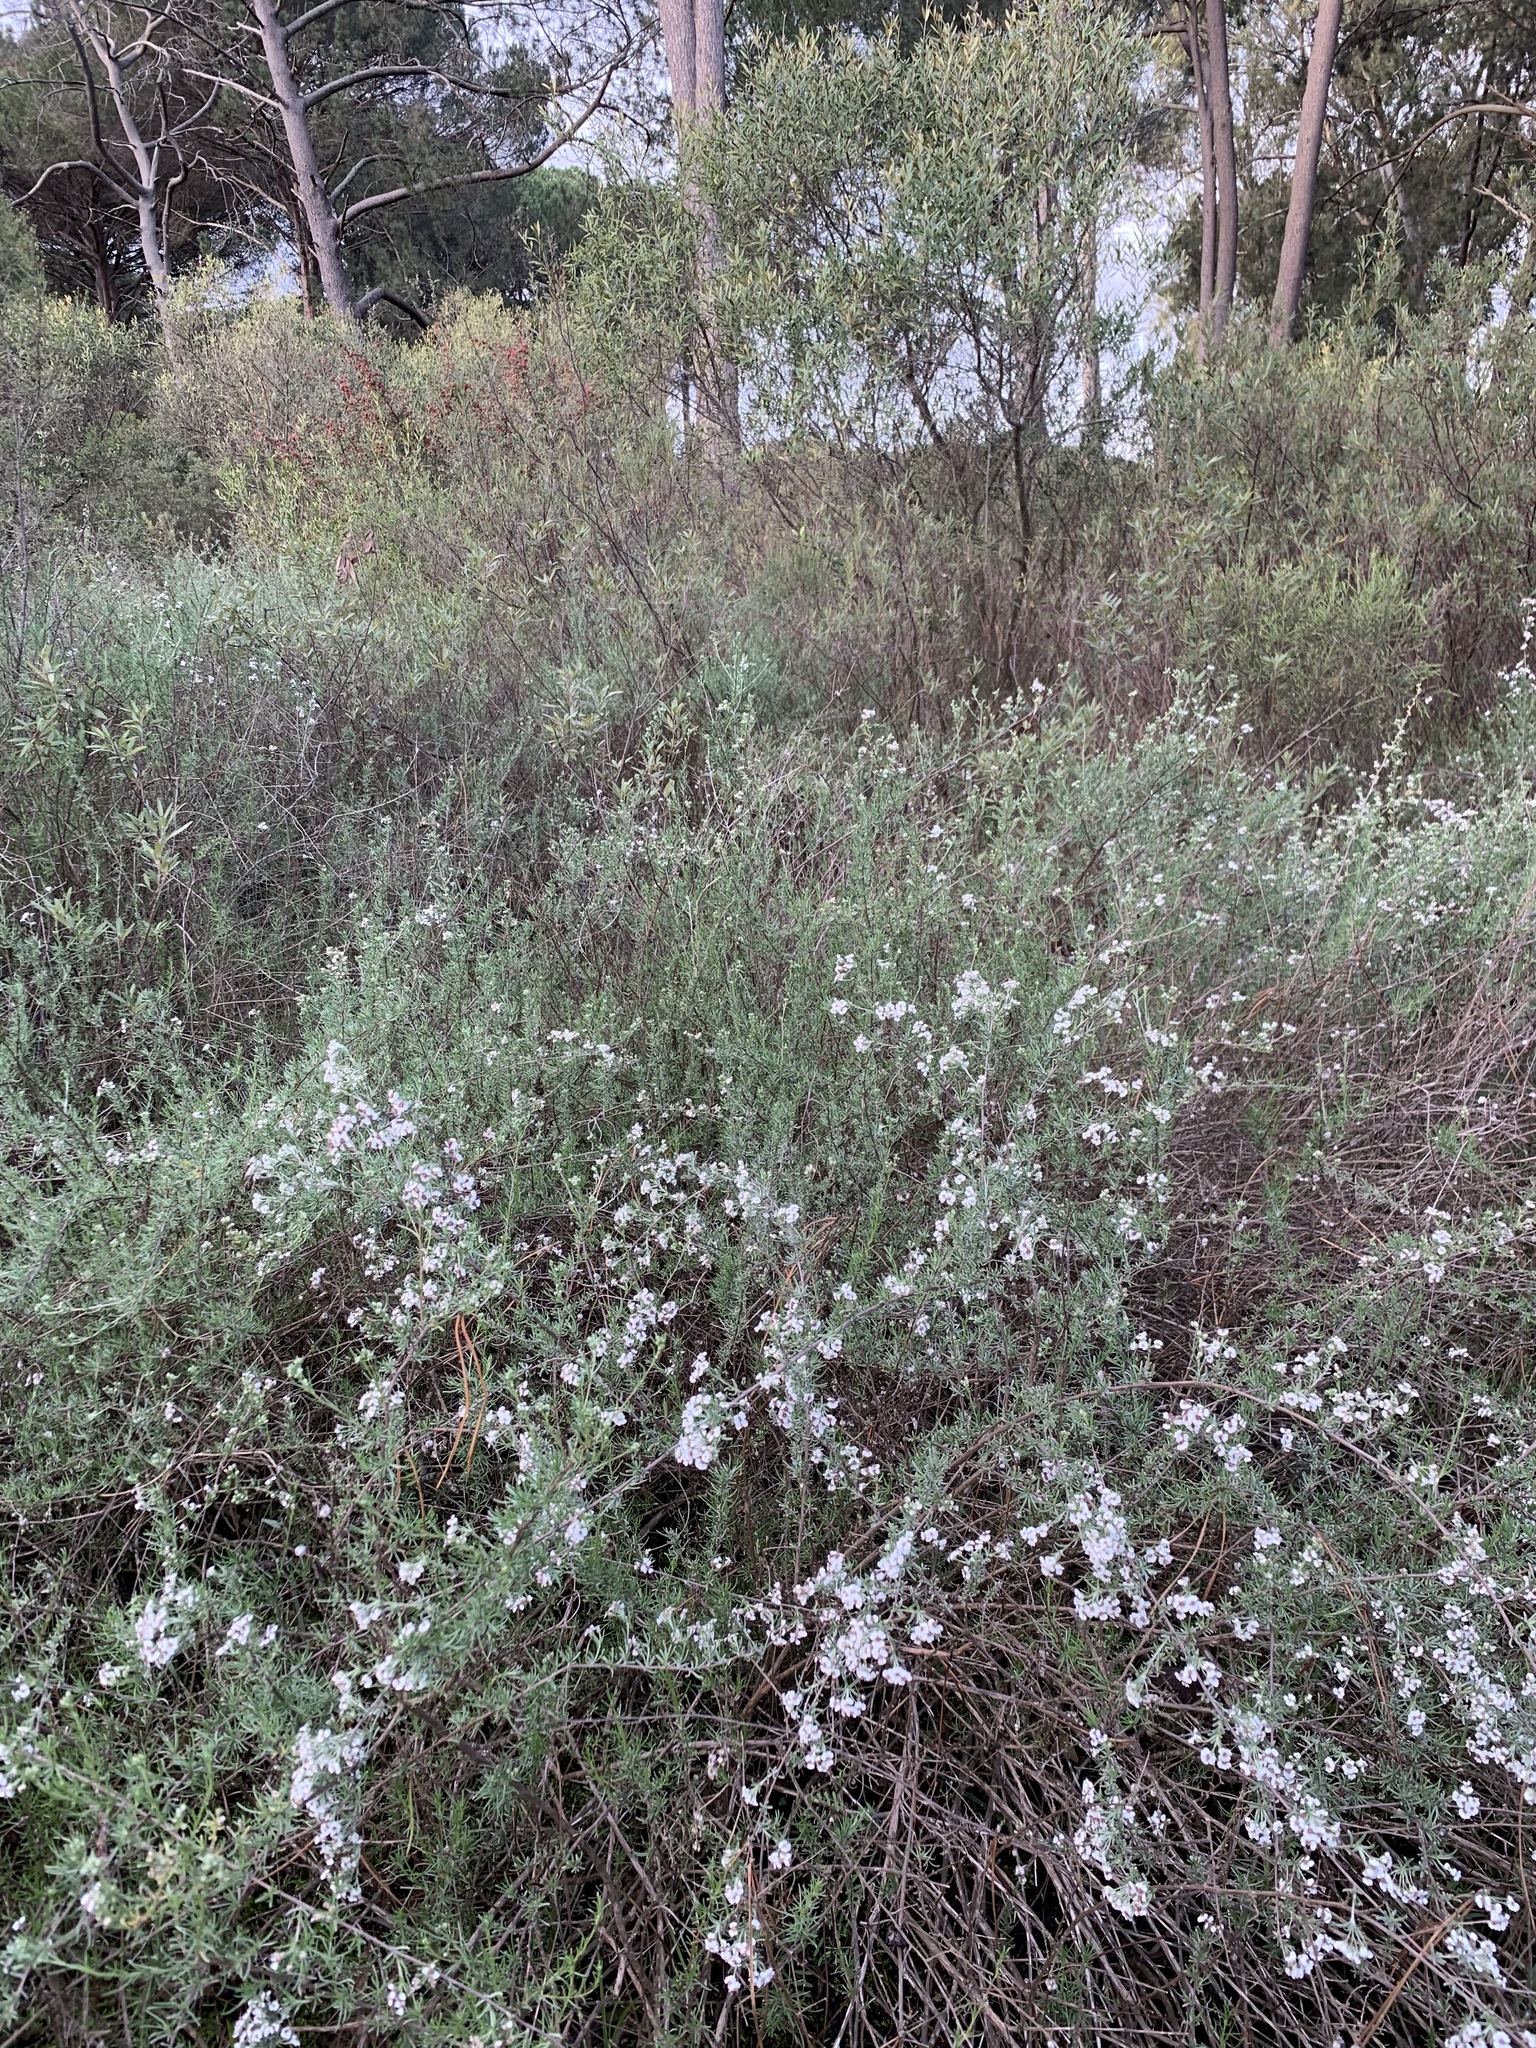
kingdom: Plantae
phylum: Tracheophyta
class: Magnoliopsida
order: Asterales
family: Asteraceae
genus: Eriocephalus
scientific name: Eriocephalus africanus
